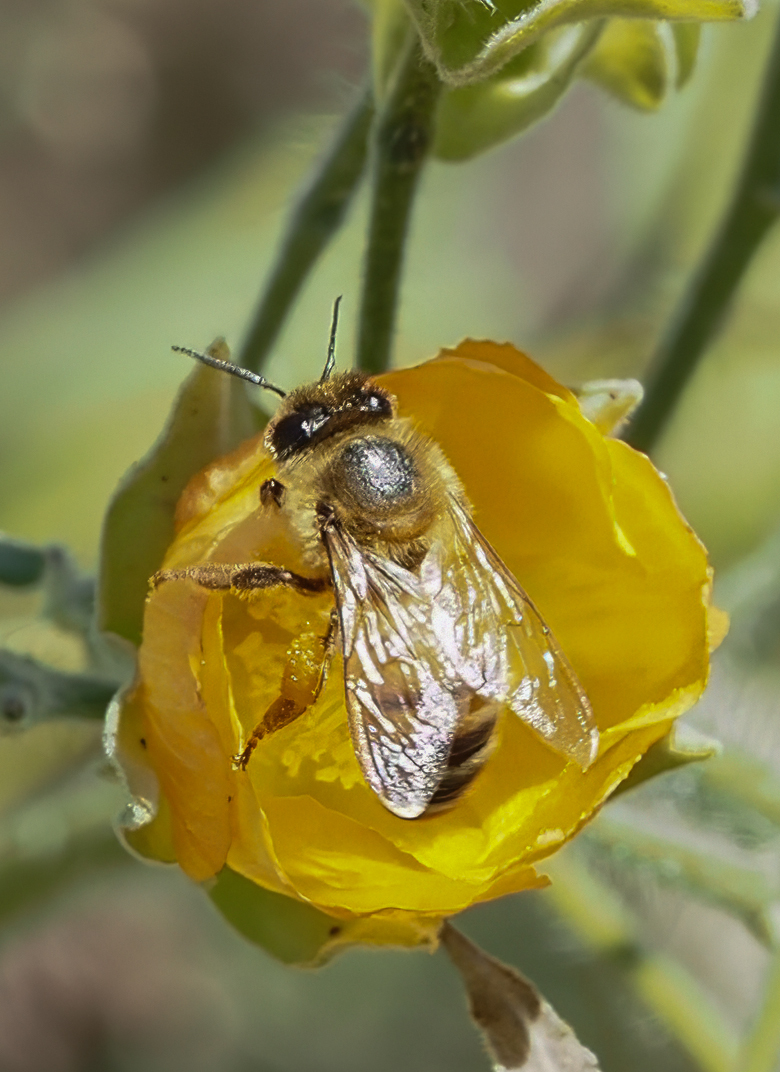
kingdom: Animalia
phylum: Arthropoda
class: Insecta
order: Hymenoptera
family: Apidae
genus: Apis
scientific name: Apis mellifera
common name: Honey bee
